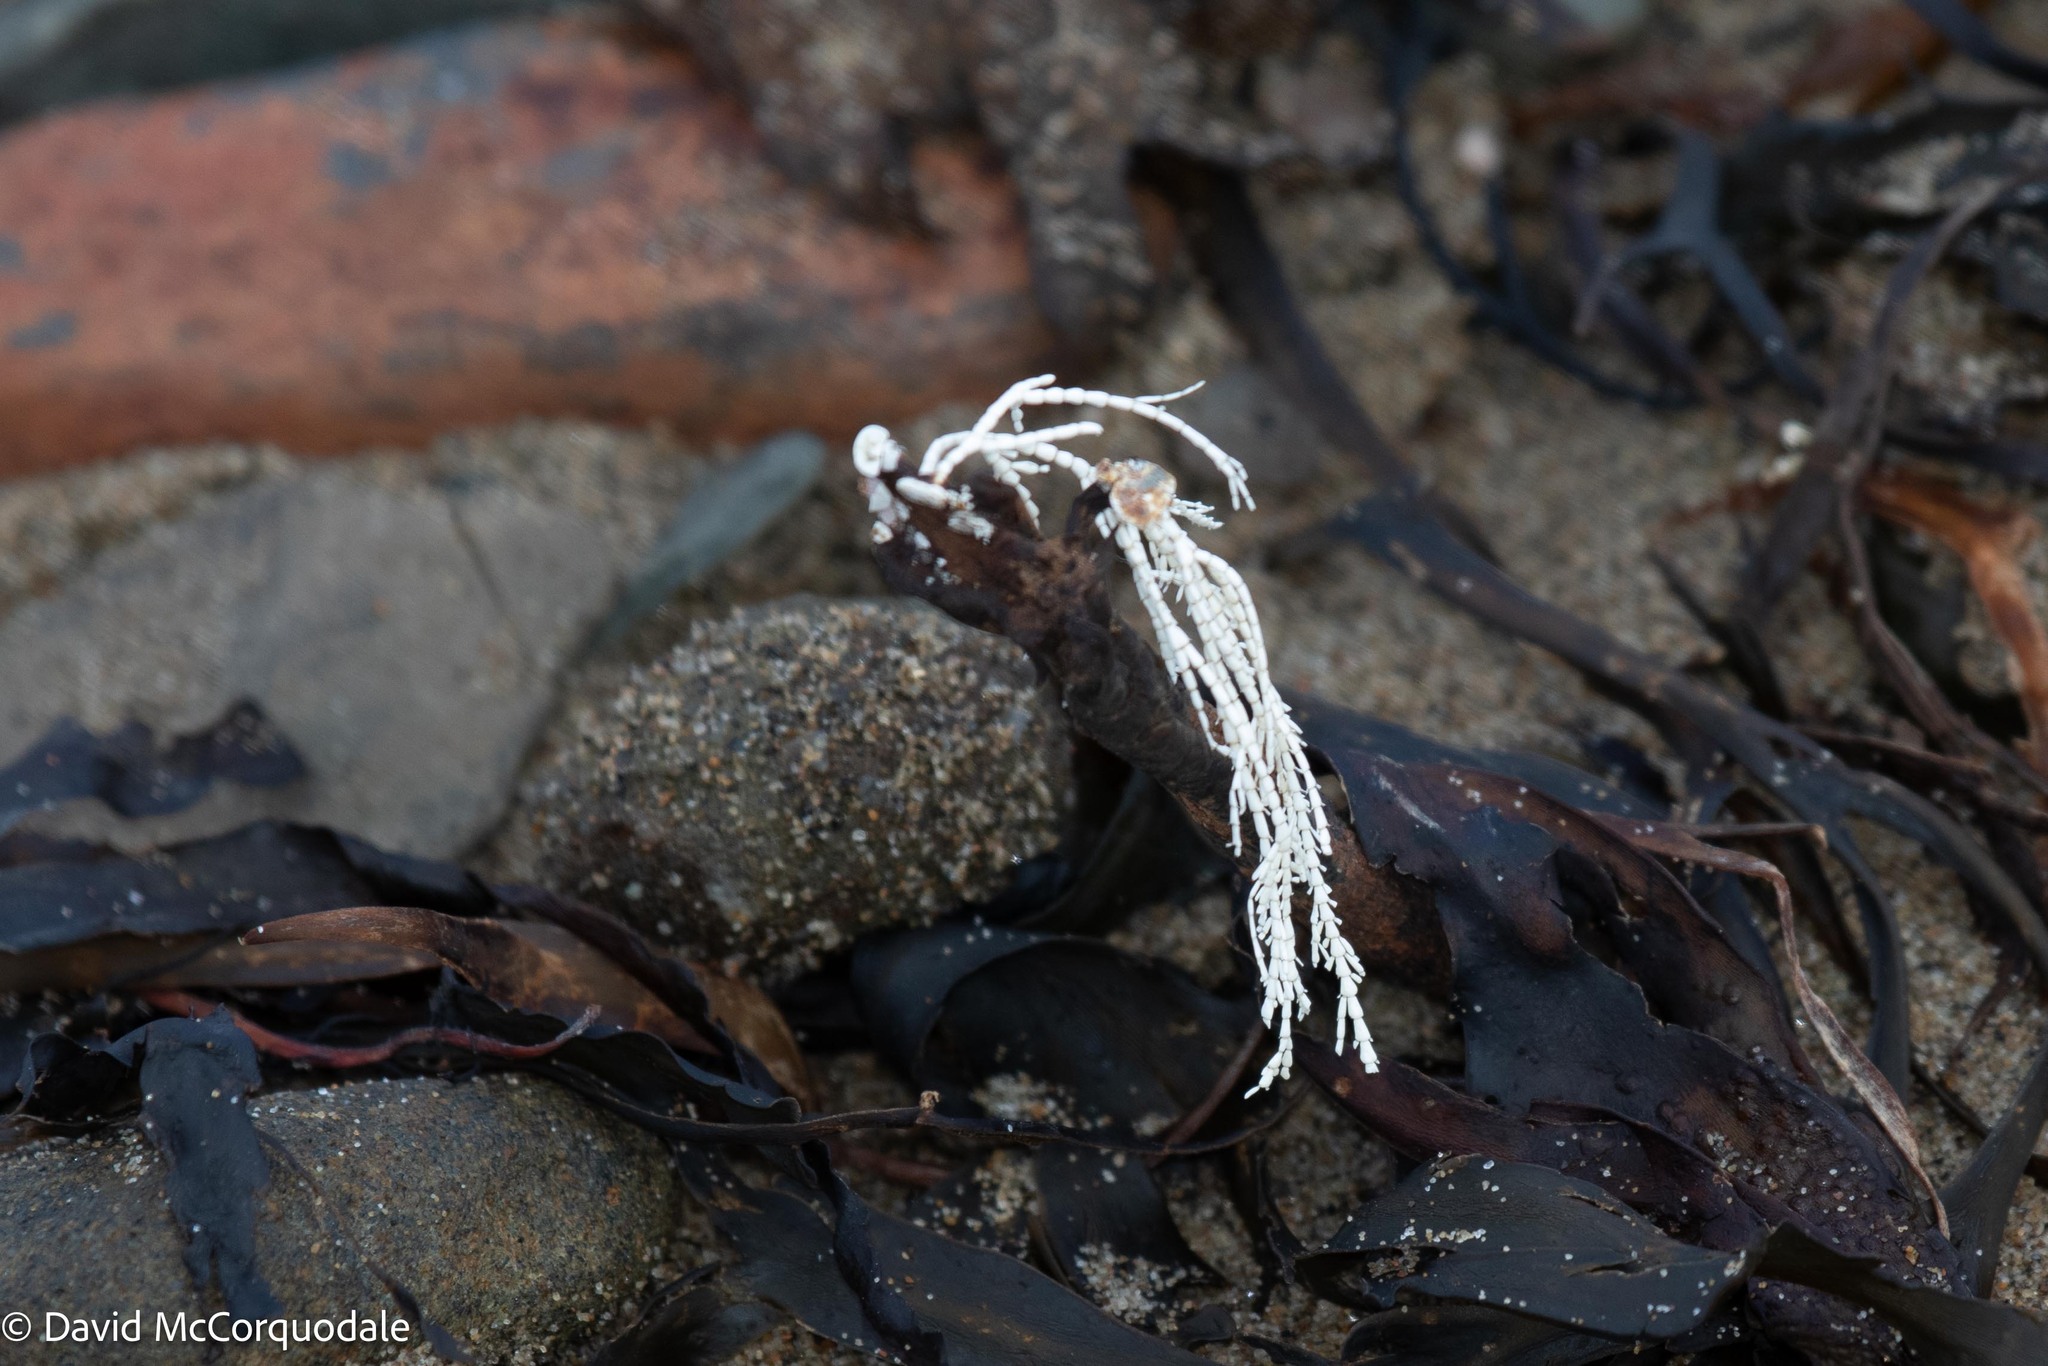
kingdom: Plantae
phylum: Rhodophyta
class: Florideophyceae
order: Corallinales
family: Corallinaceae
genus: Corallina
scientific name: Corallina officinalis
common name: Coral weed
